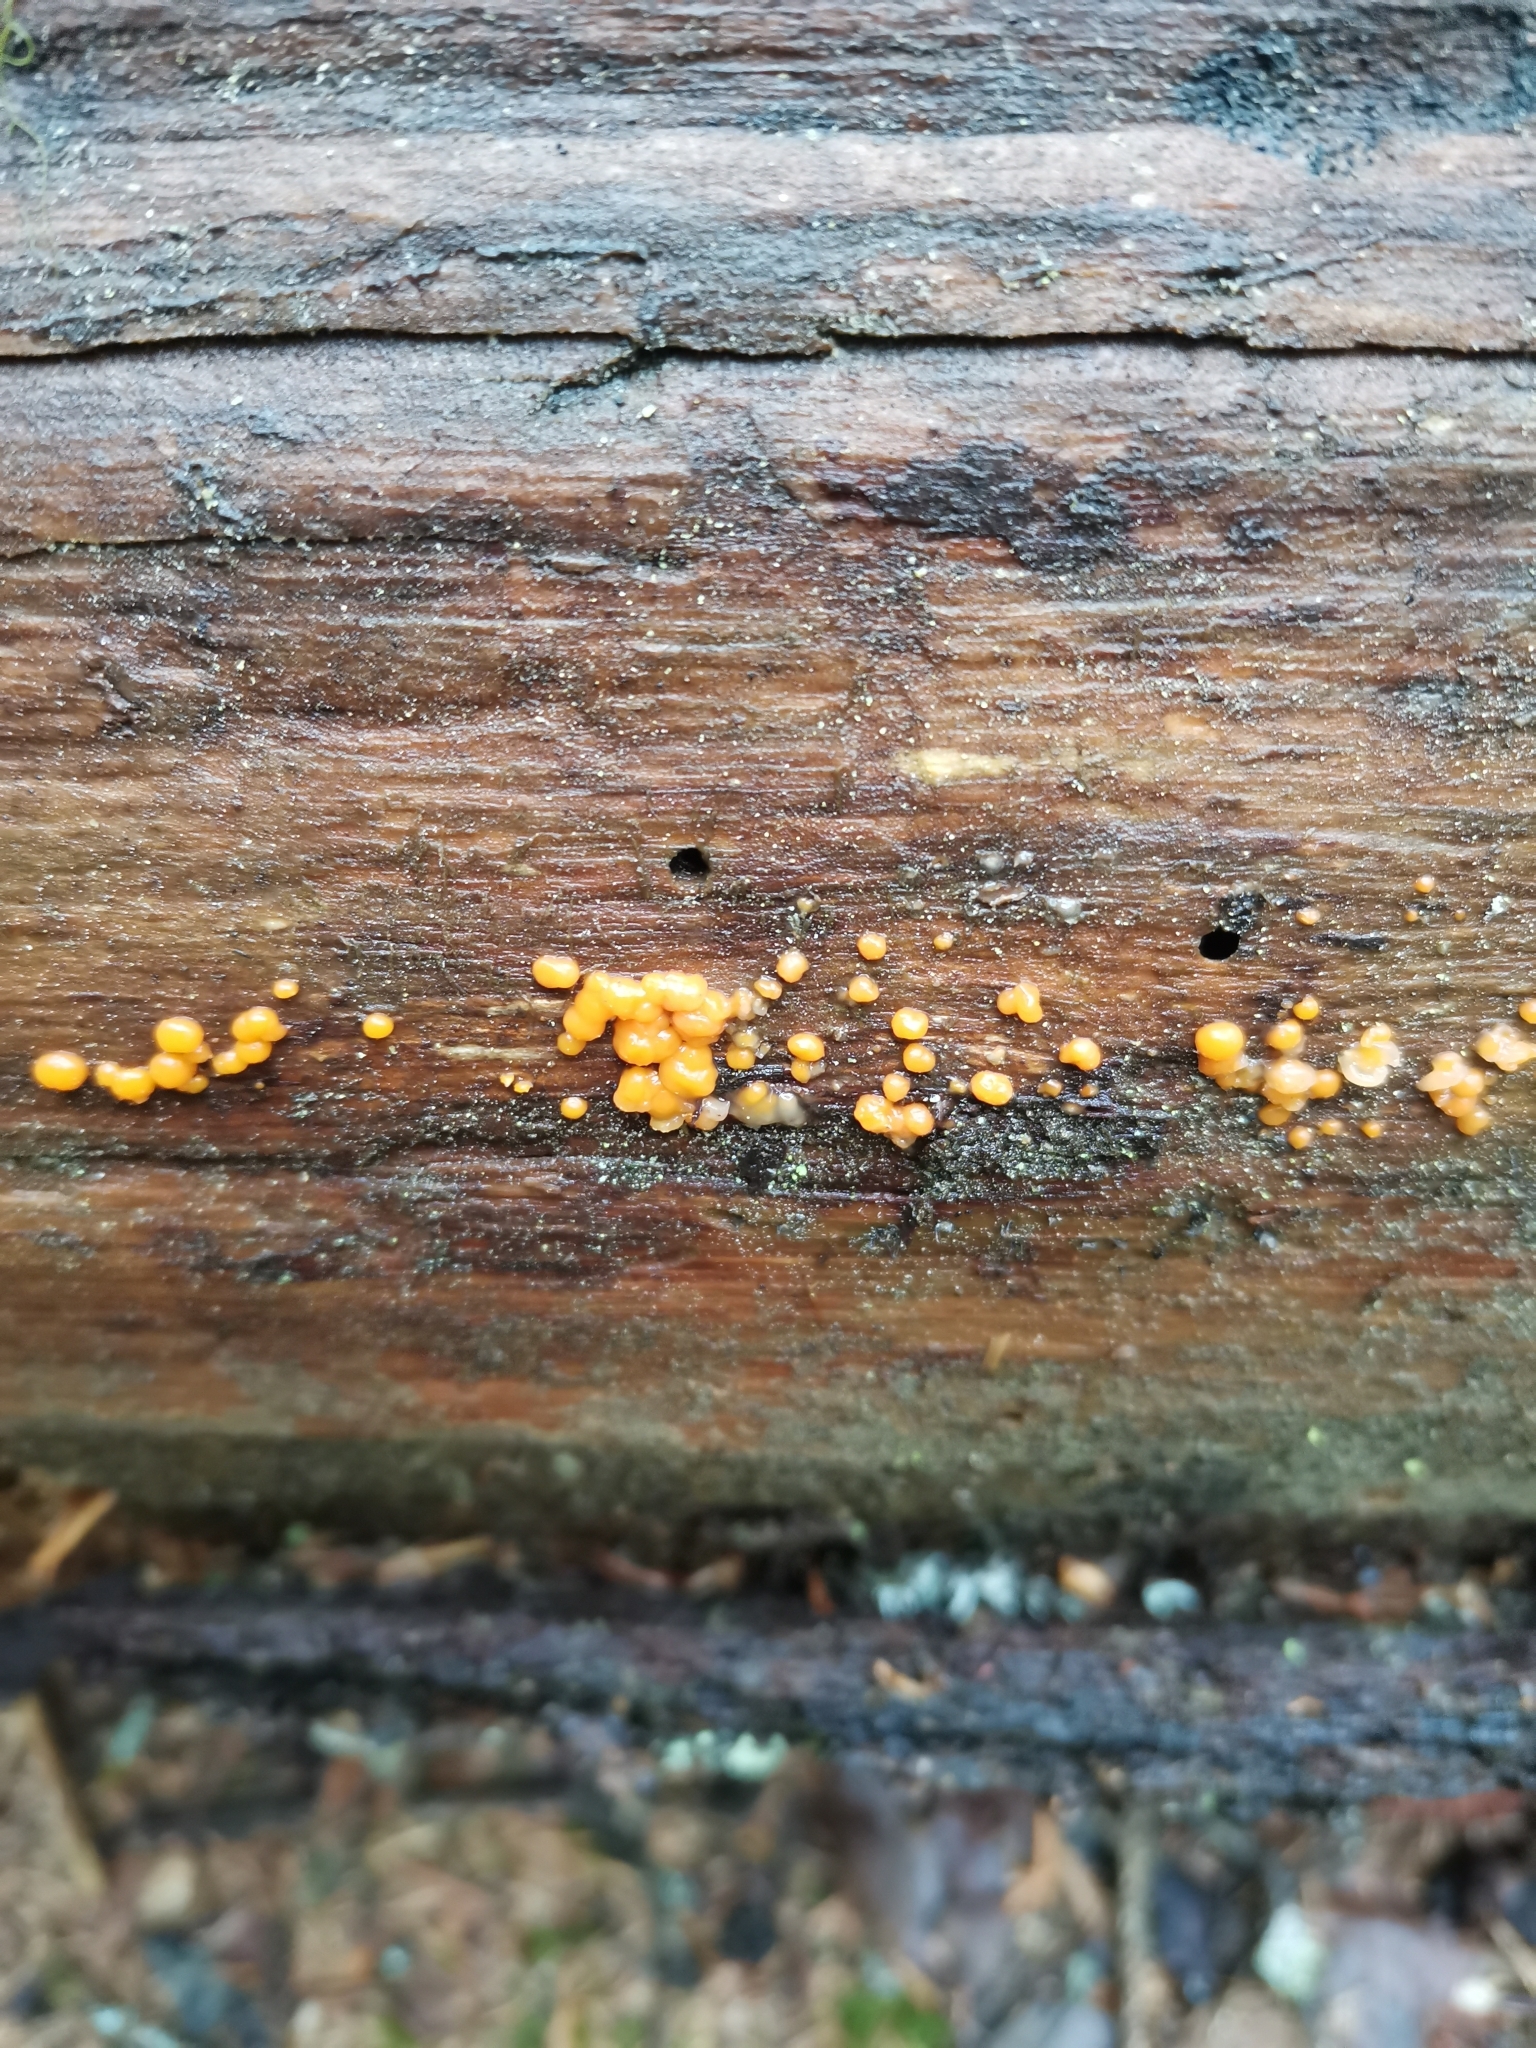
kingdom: Fungi
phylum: Basidiomycota
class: Dacrymycetes
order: Dacrymycetales
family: Dacrymycetaceae
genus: Dacrymyces
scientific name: Dacrymyces stillatus
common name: Common jelly spot
